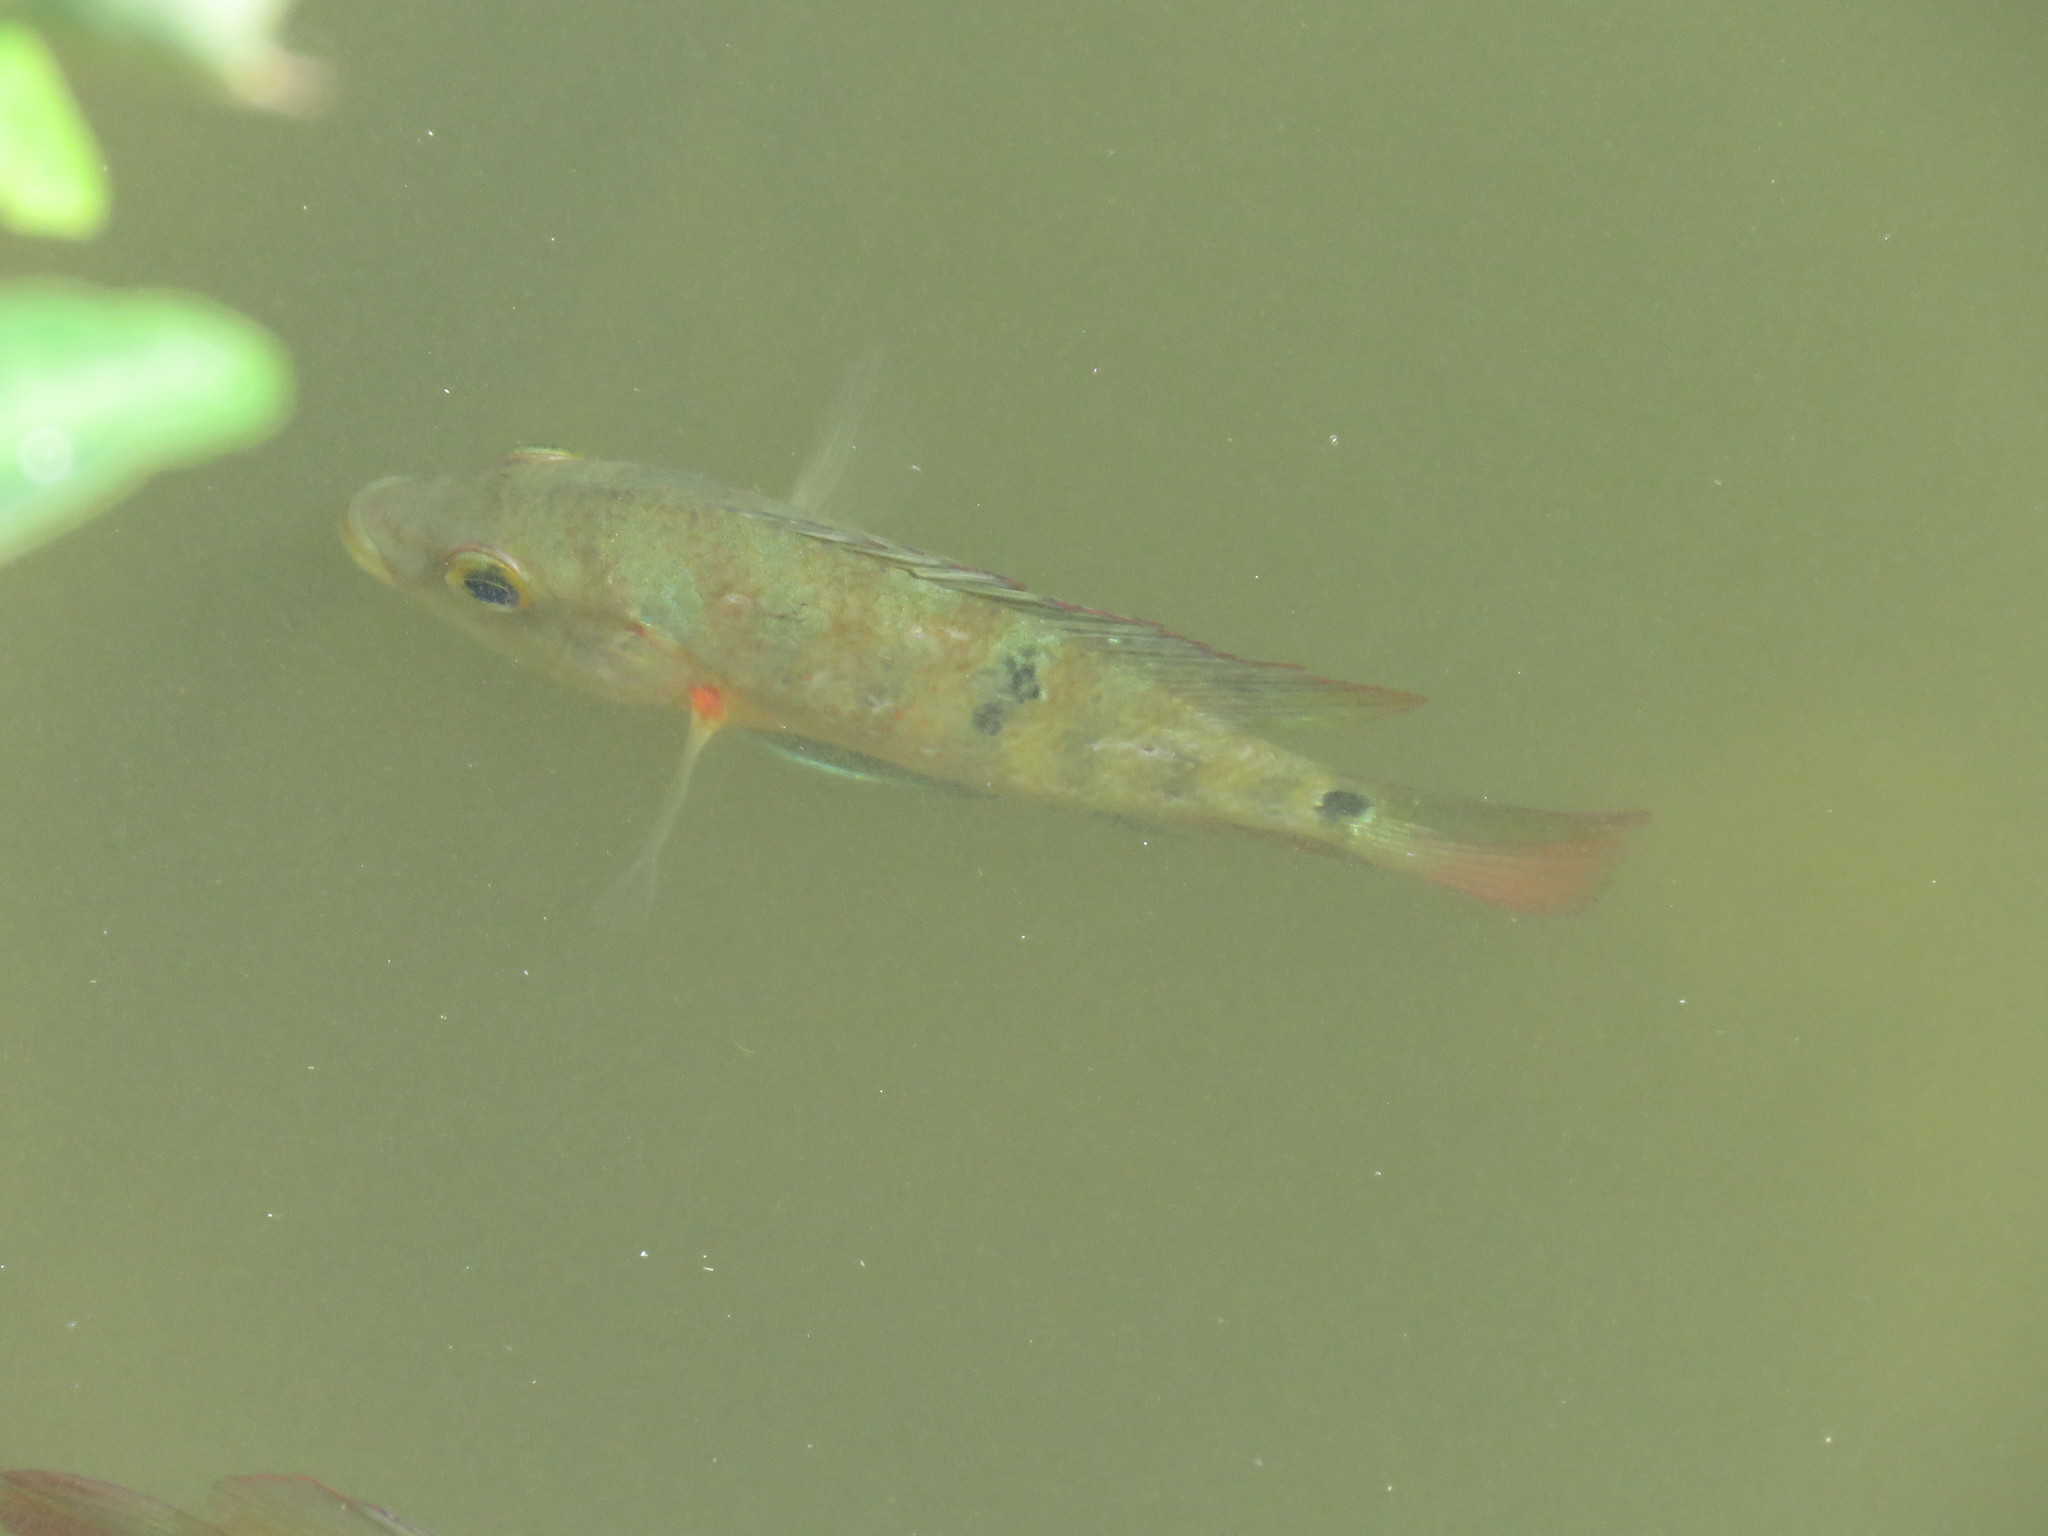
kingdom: Animalia
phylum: Chordata
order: Perciformes
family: Cichlidae
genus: Mayaheros
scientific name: Mayaheros urophthalmus
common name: Mayan cichlid
